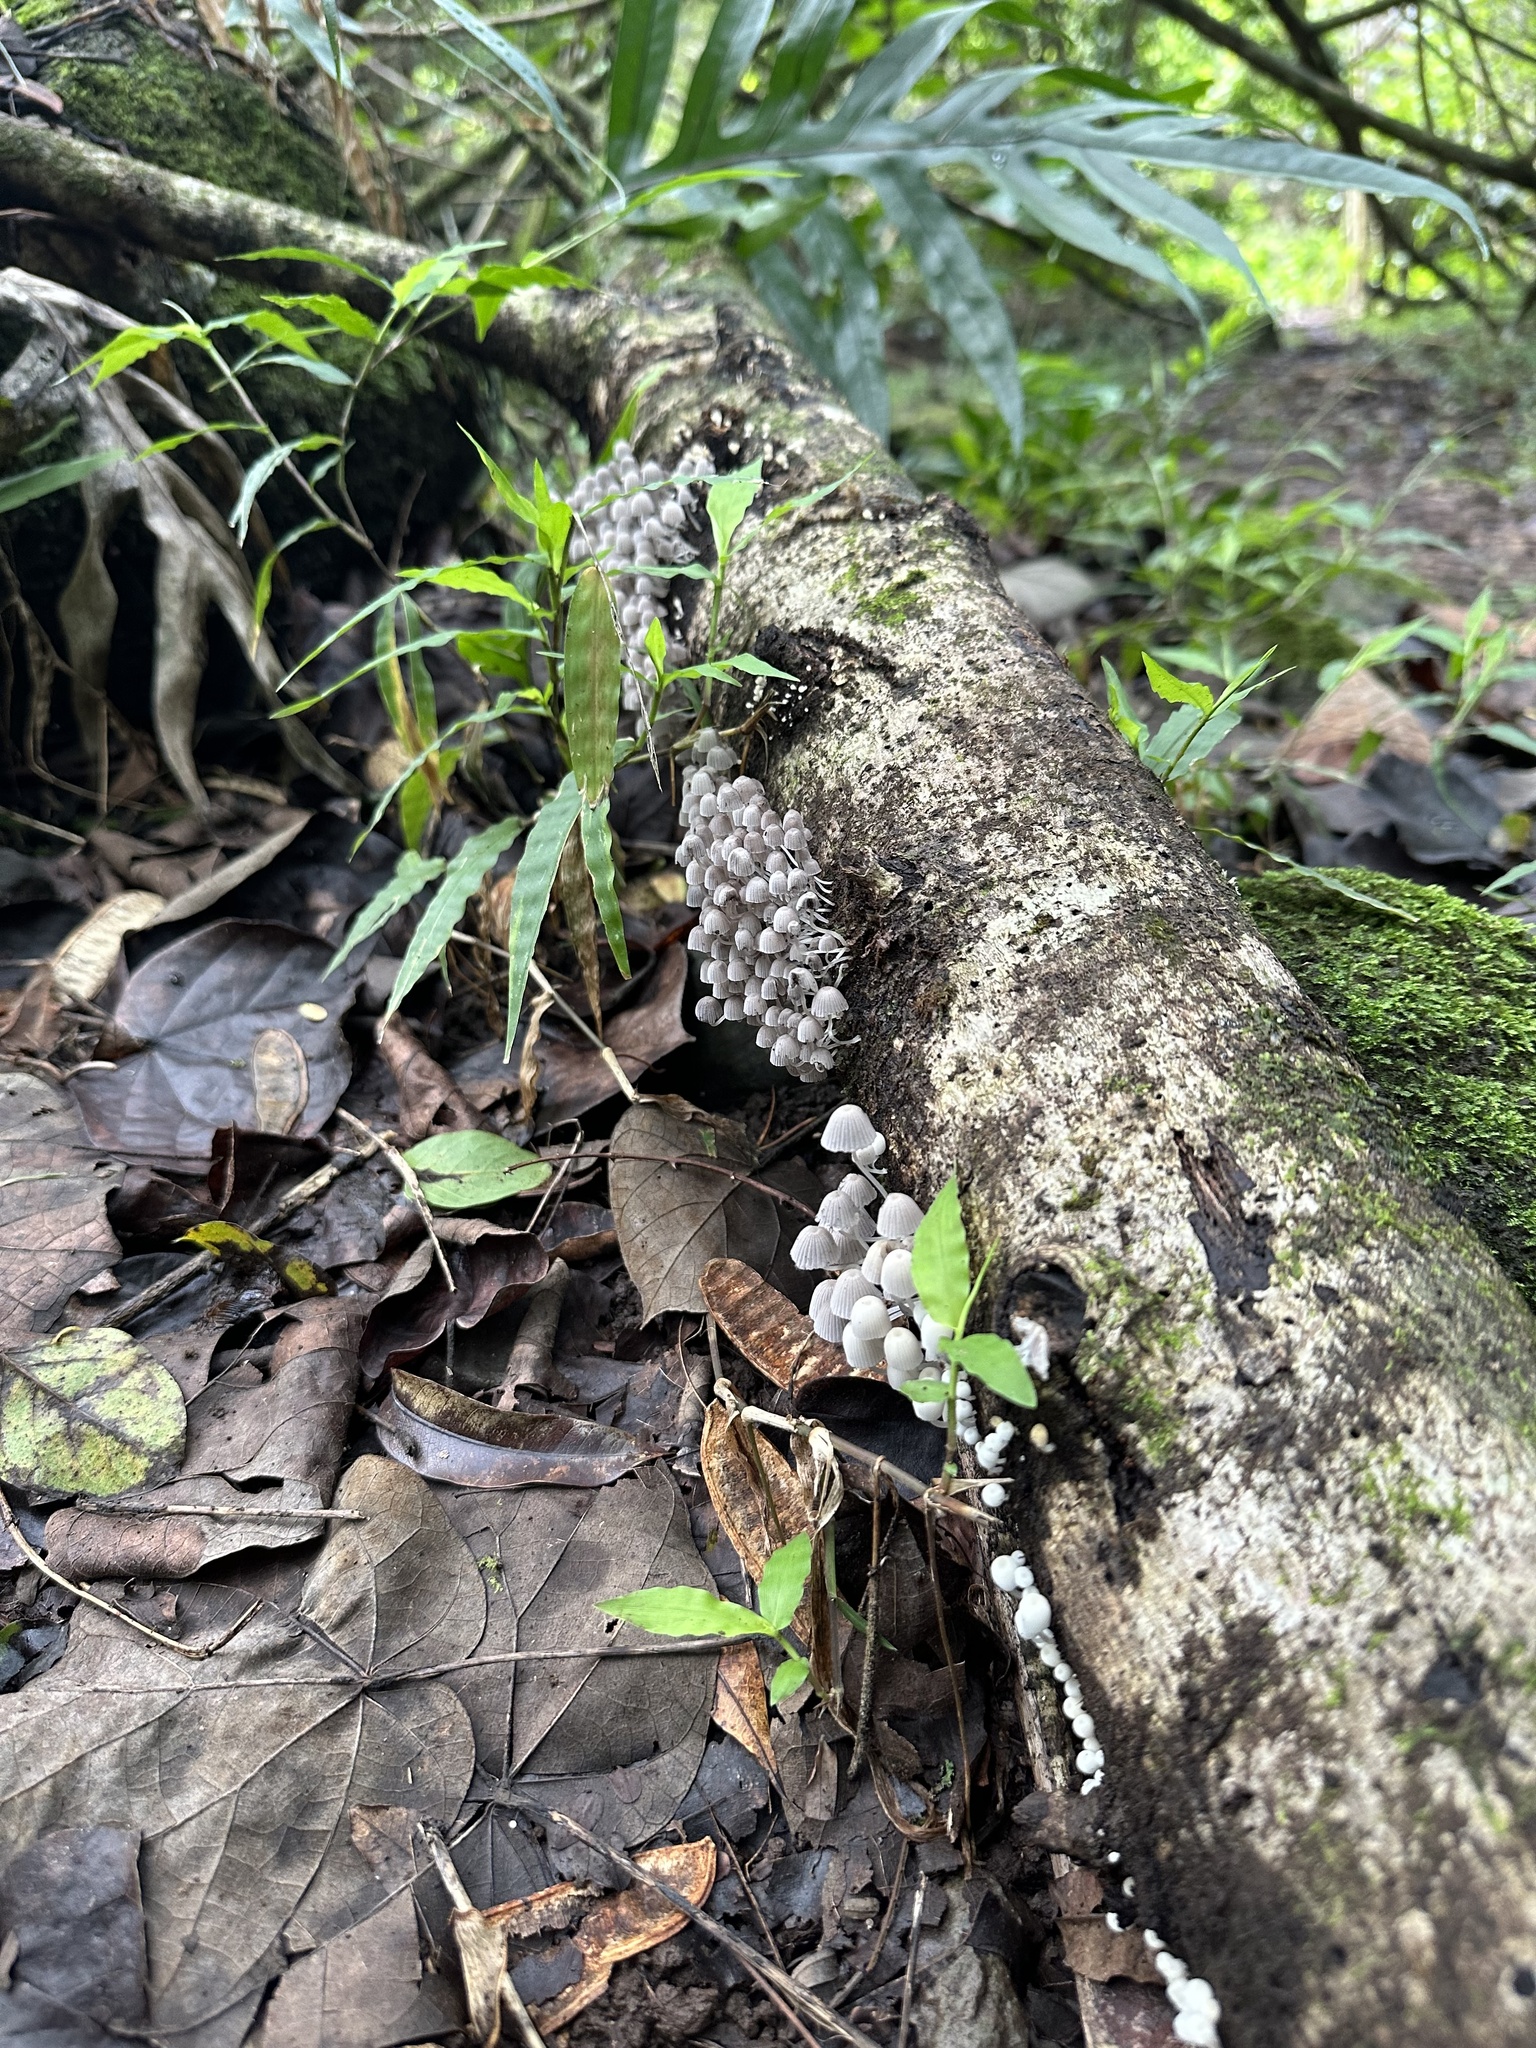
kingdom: Fungi
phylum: Basidiomycota
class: Agaricomycetes
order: Agaricales
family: Psathyrellaceae
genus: Coprinellus
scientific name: Coprinellus disseminatus
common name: Fairies' bonnets
